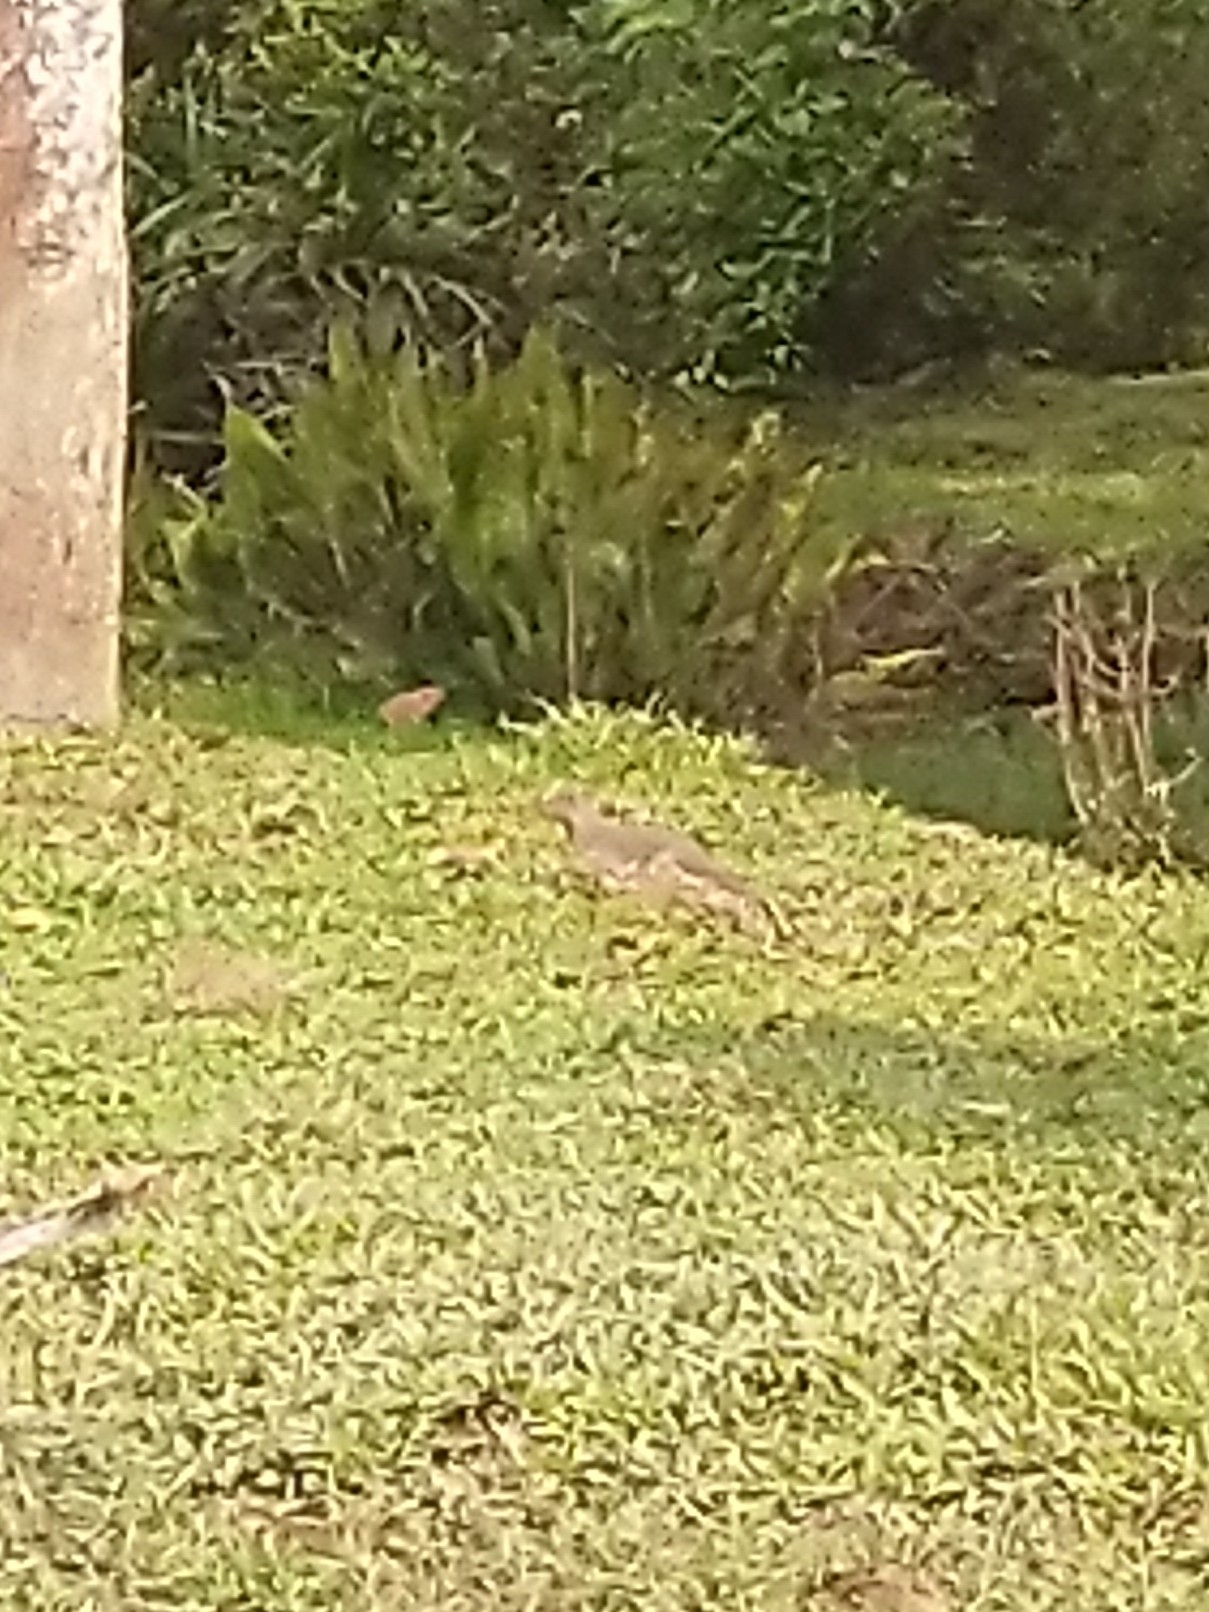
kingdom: Animalia
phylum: Chordata
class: Mammalia
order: Carnivora
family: Herpestidae
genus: Herpestes
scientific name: Herpestes edwardsi
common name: Indian gray mongoose
